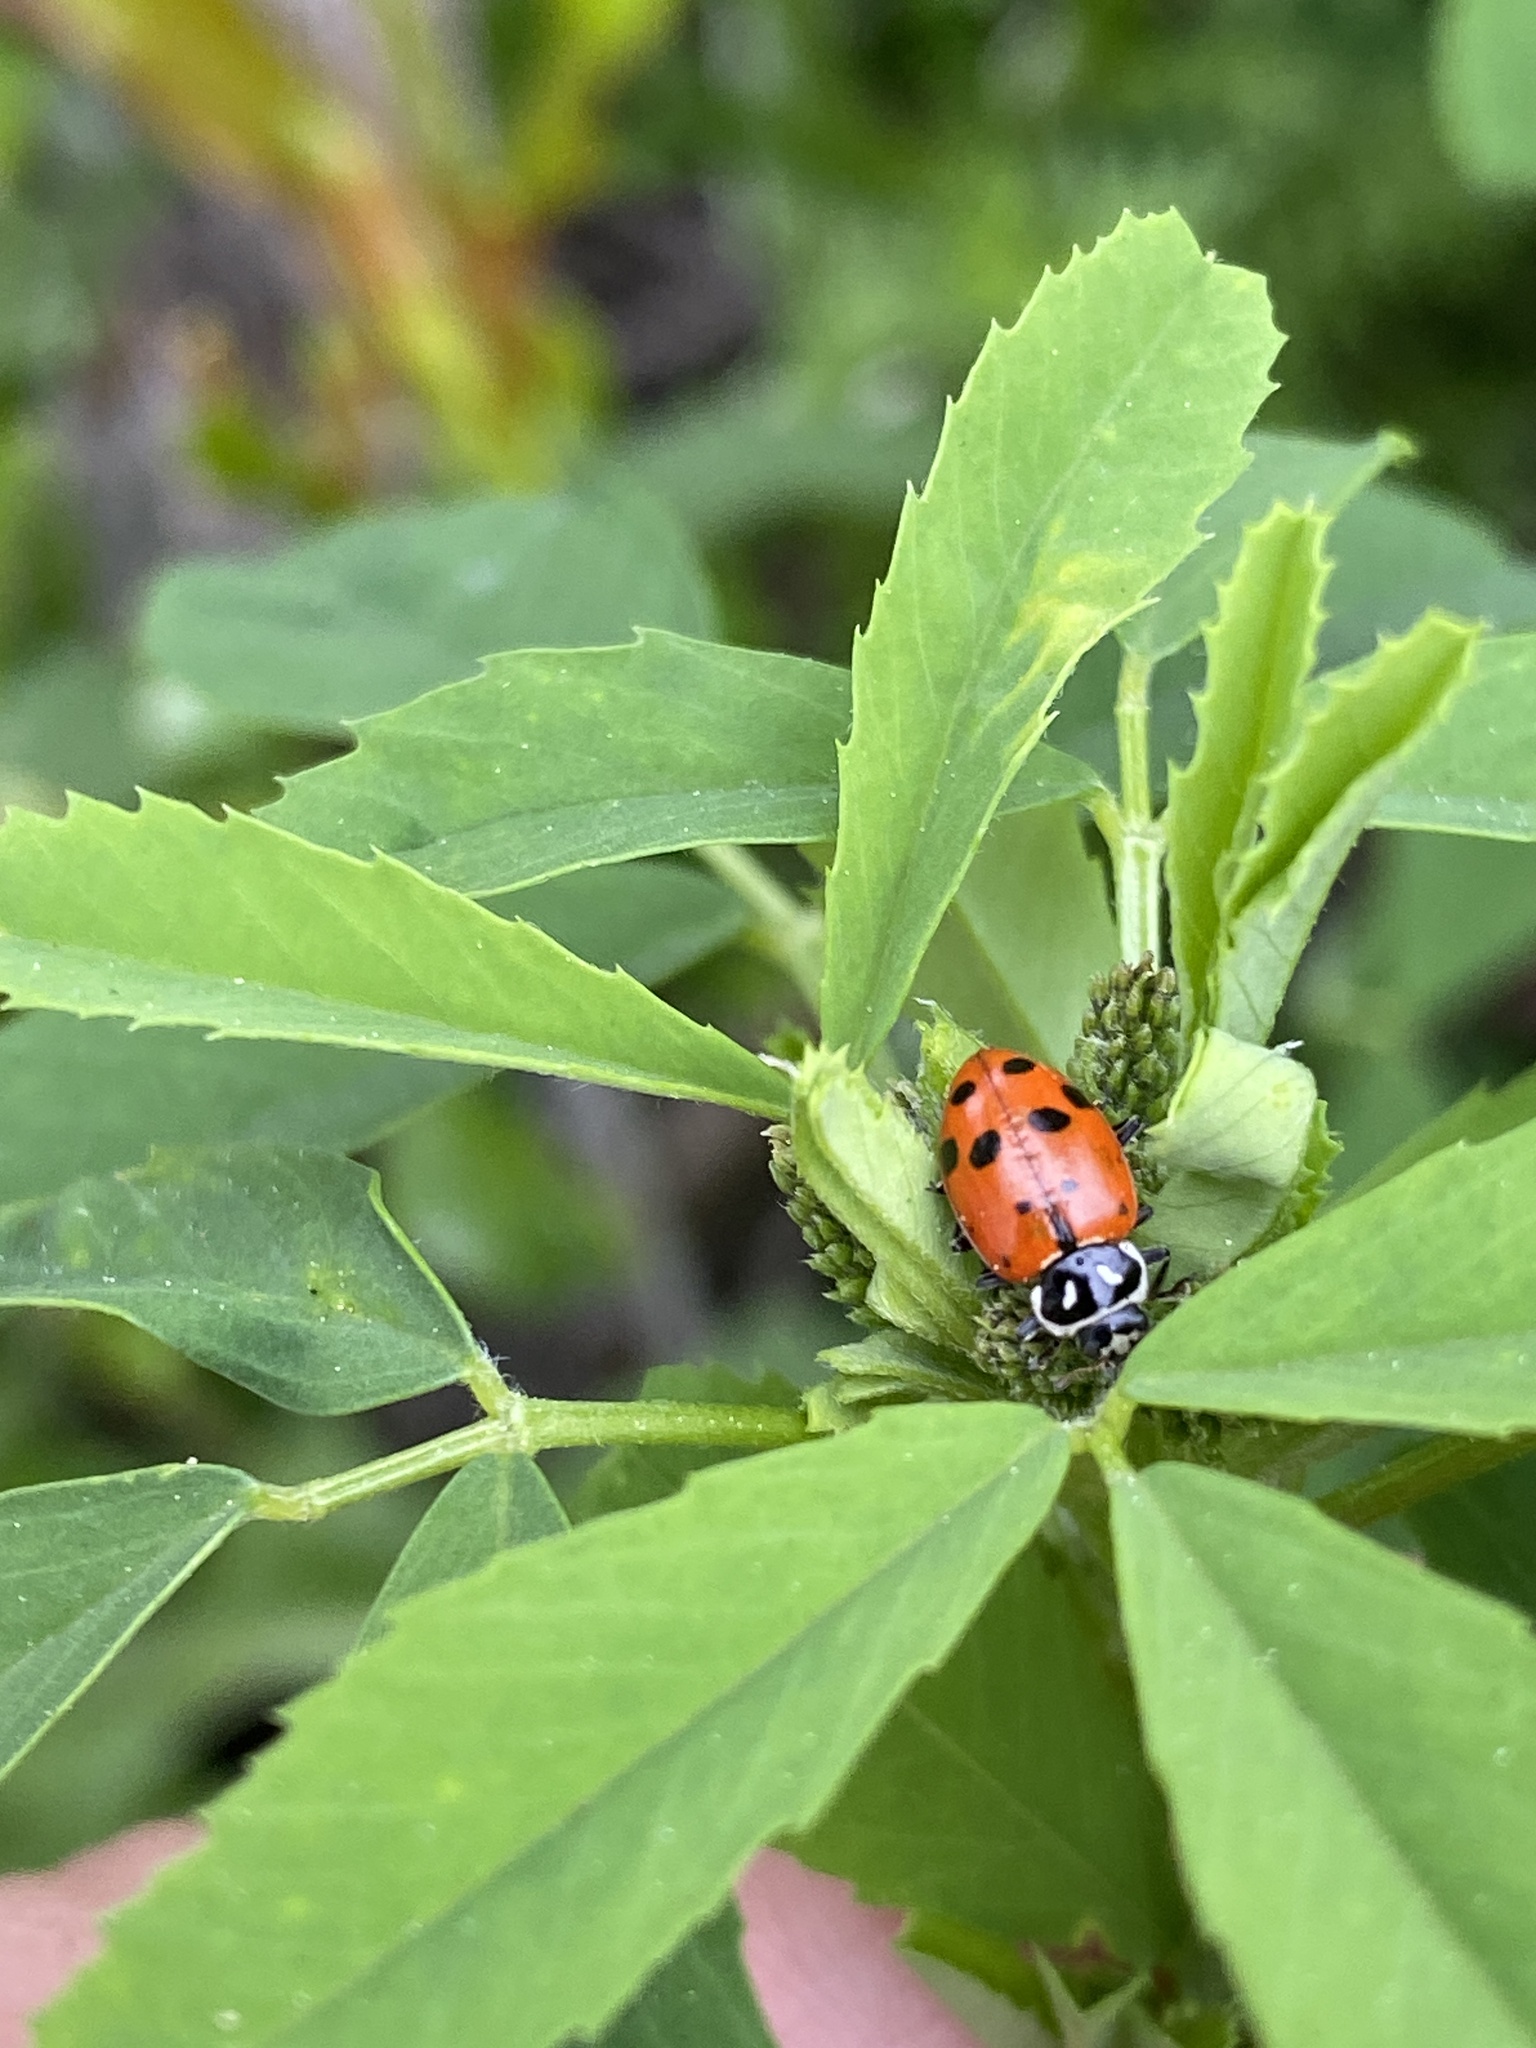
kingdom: Animalia
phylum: Arthropoda
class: Insecta
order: Coleoptera
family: Coccinellidae
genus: Hippodamia
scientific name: Hippodamia convergens
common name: Convergent lady beetle
